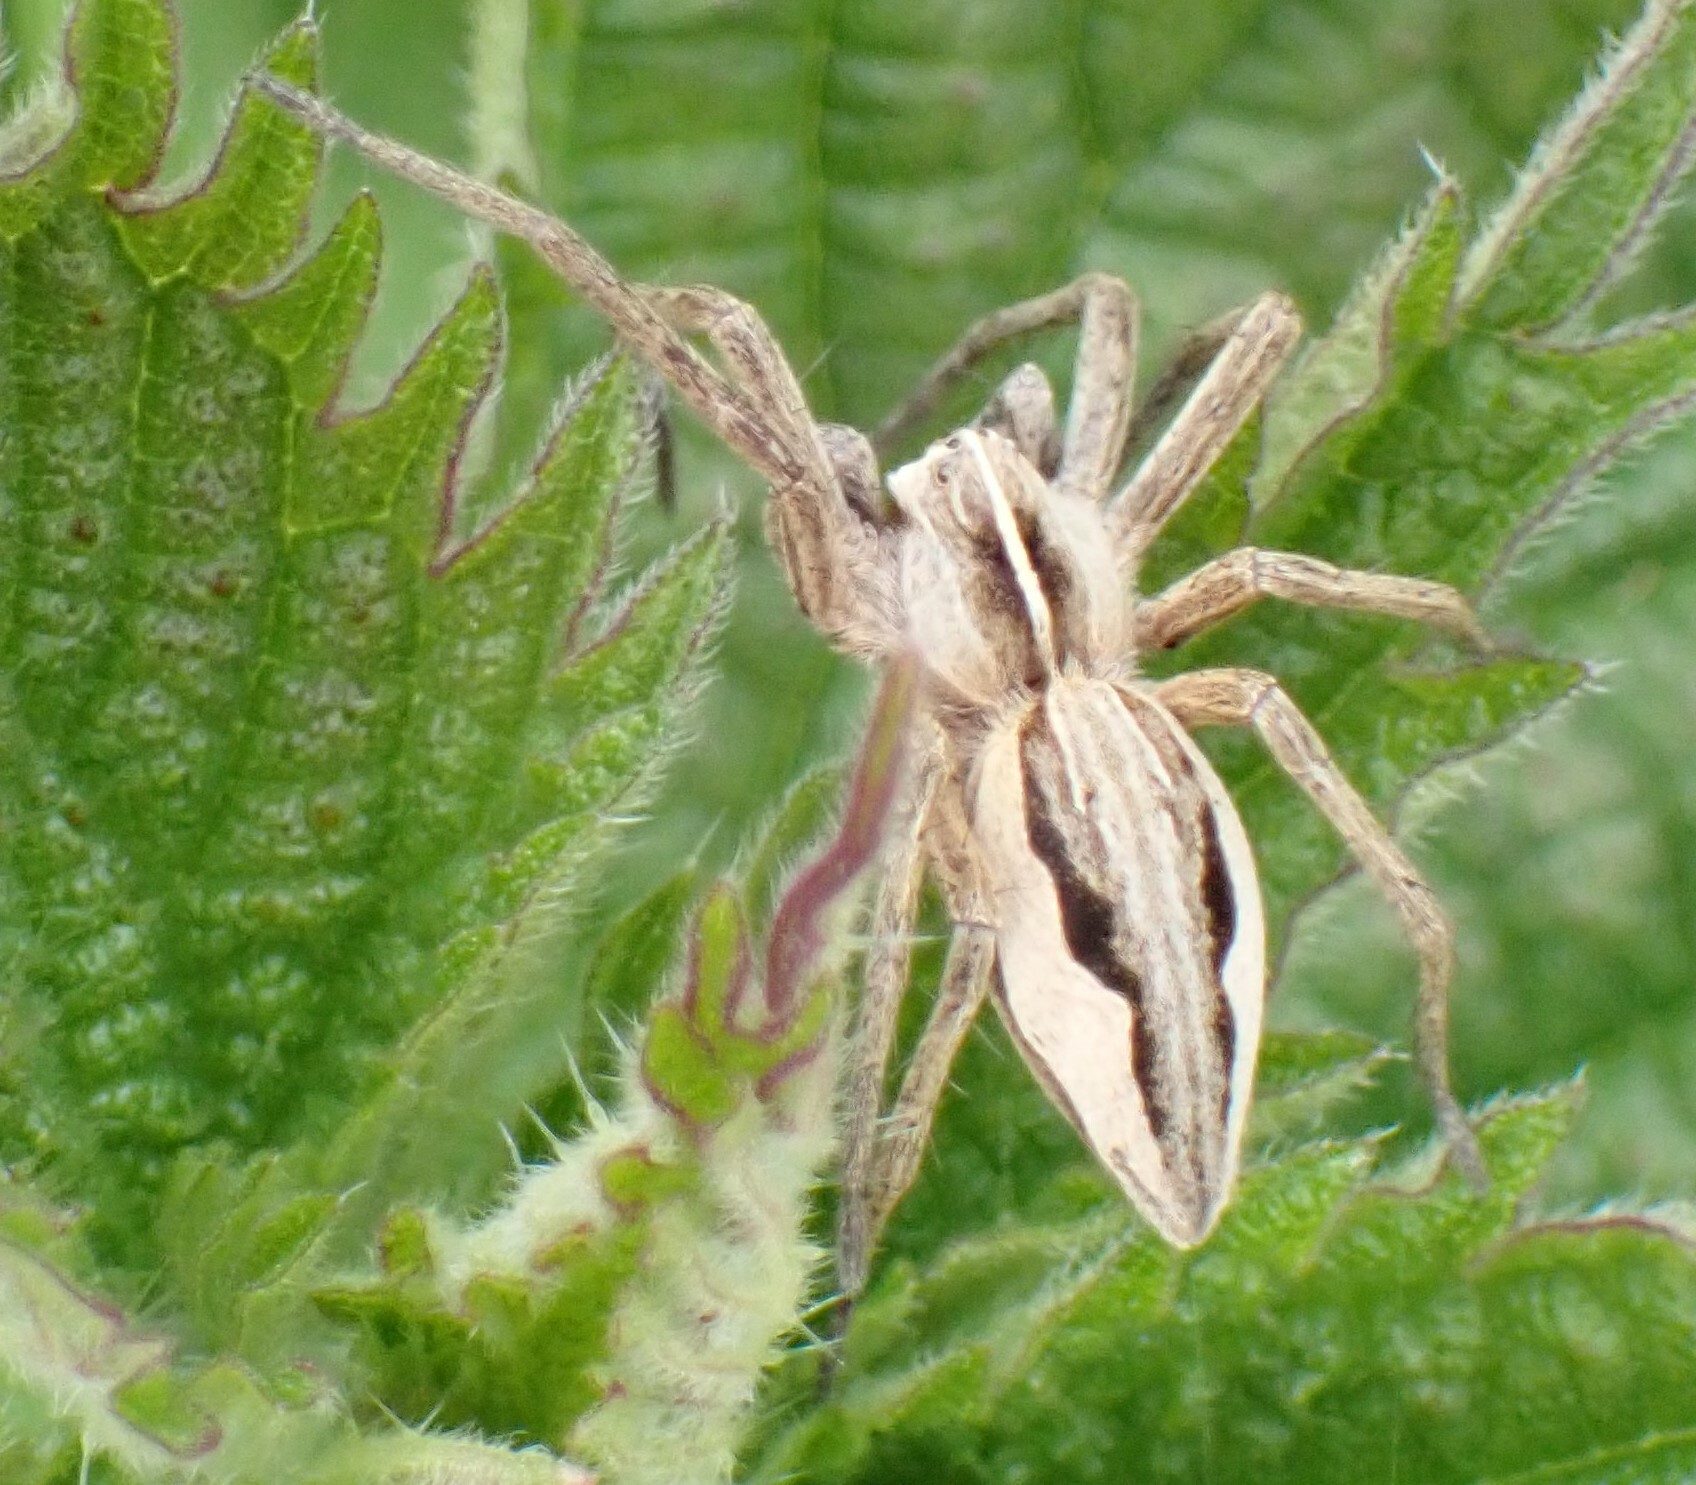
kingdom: Animalia
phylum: Arthropoda
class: Arachnida
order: Araneae
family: Pisauridae
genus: Pisaura
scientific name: Pisaura mirabilis
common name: Tent spider
